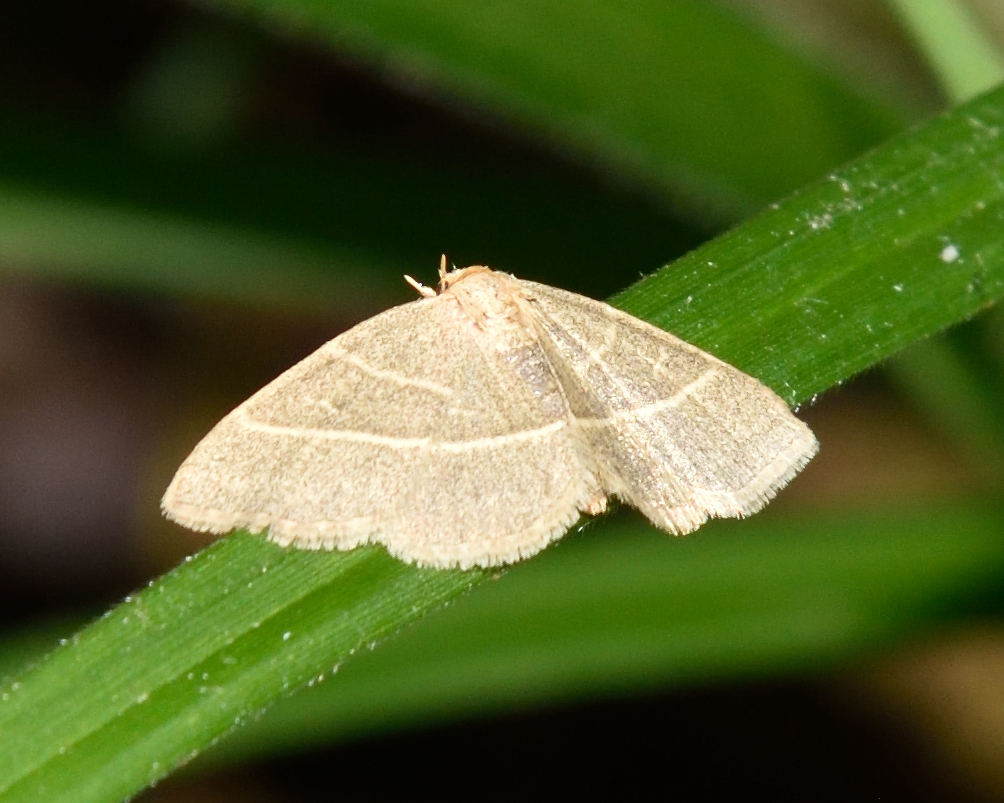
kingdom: Animalia
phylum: Arthropoda
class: Insecta
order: Lepidoptera
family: Erebidae
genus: Trisateles
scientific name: Trisateles emortualis
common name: Olive crescent
